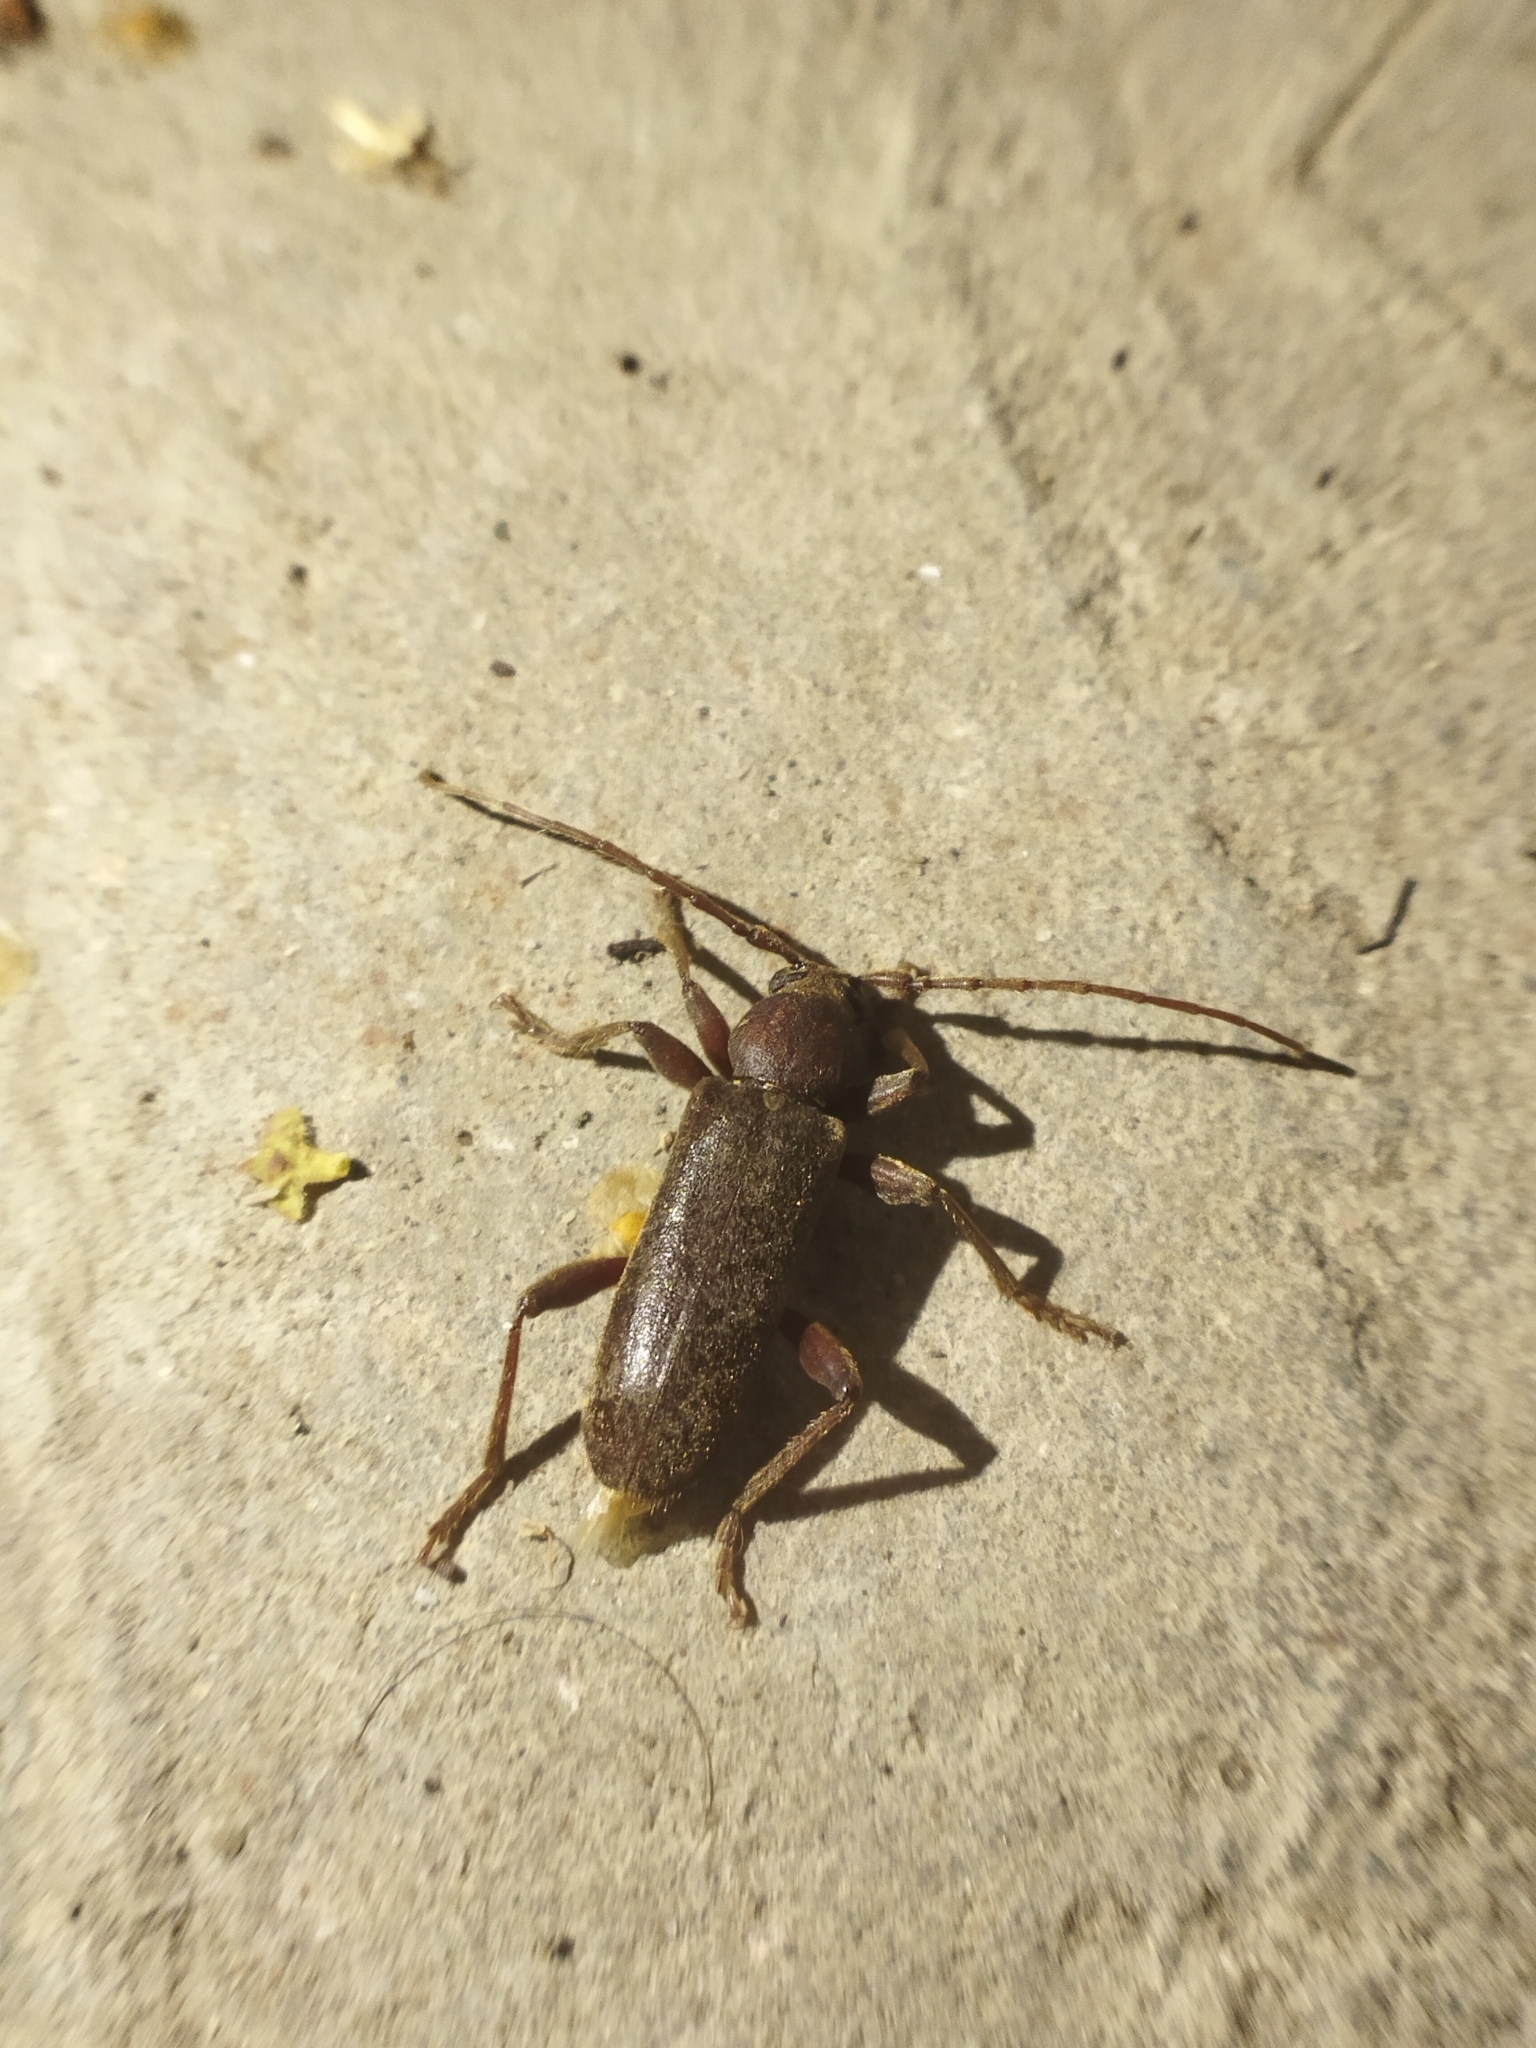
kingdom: Animalia
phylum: Arthropoda
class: Insecta
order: Coleoptera
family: Cerambycidae
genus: Trichoferus
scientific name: Trichoferus campestris
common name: Velvet long horned beetle
